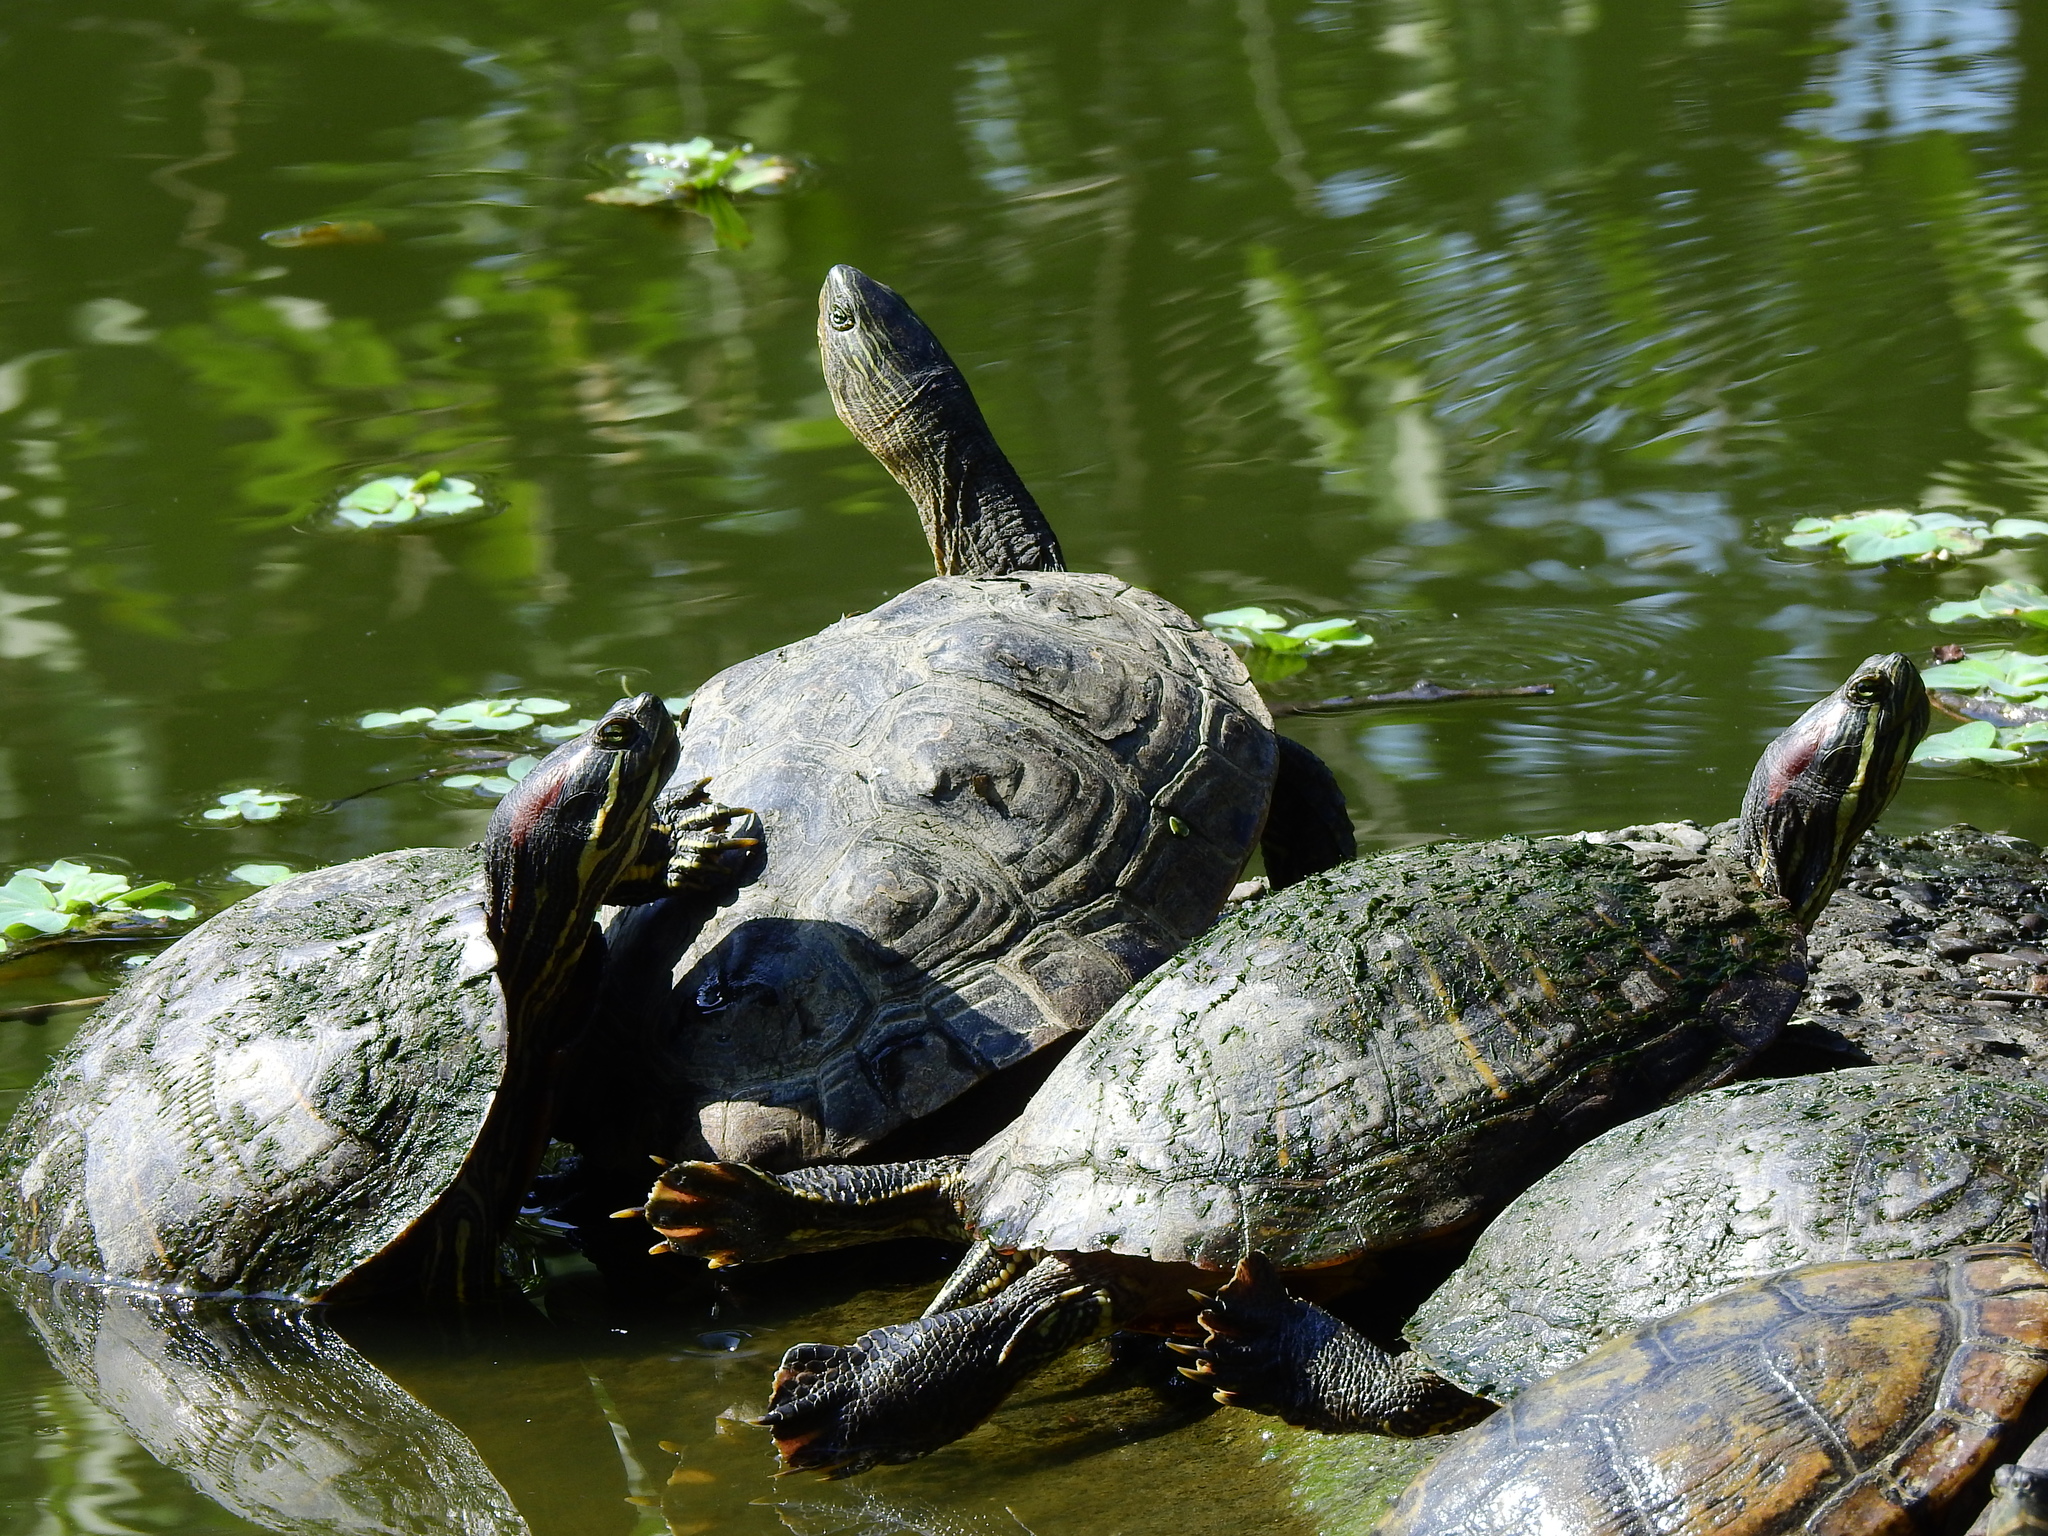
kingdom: Animalia
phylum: Chordata
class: Testudines
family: Emydidae
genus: Trachemys
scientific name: Trachemys scripta
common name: Slider
